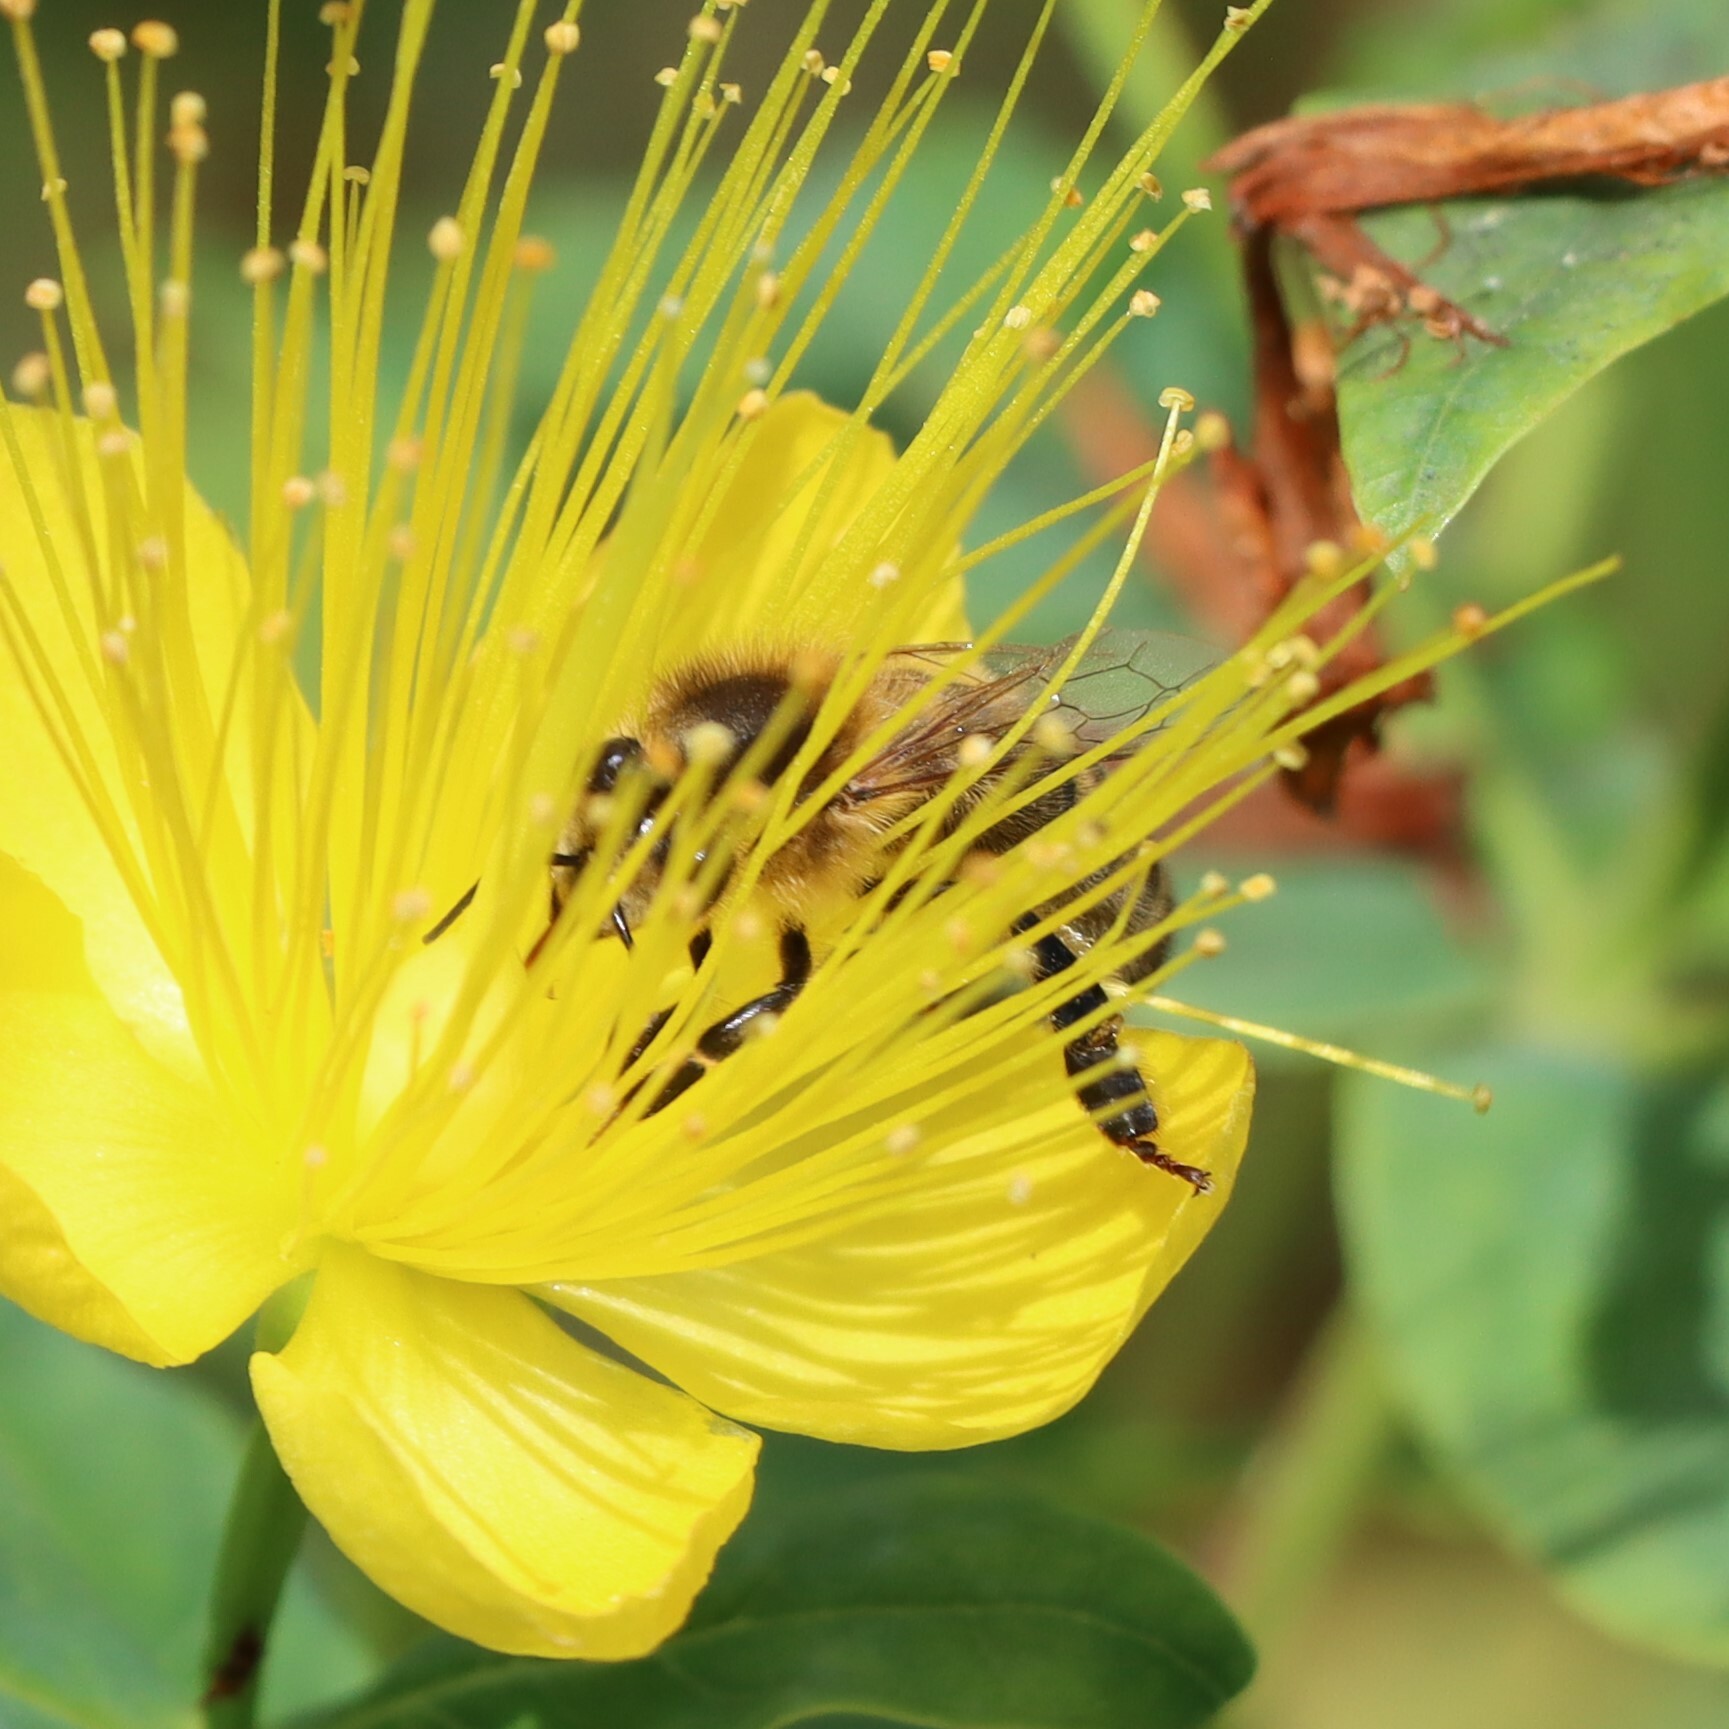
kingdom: Animalia
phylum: Arthropoda
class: Insecta
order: Hymenoptera
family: Apidae
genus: Apis
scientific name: Apis mellifera
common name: Honey bee
